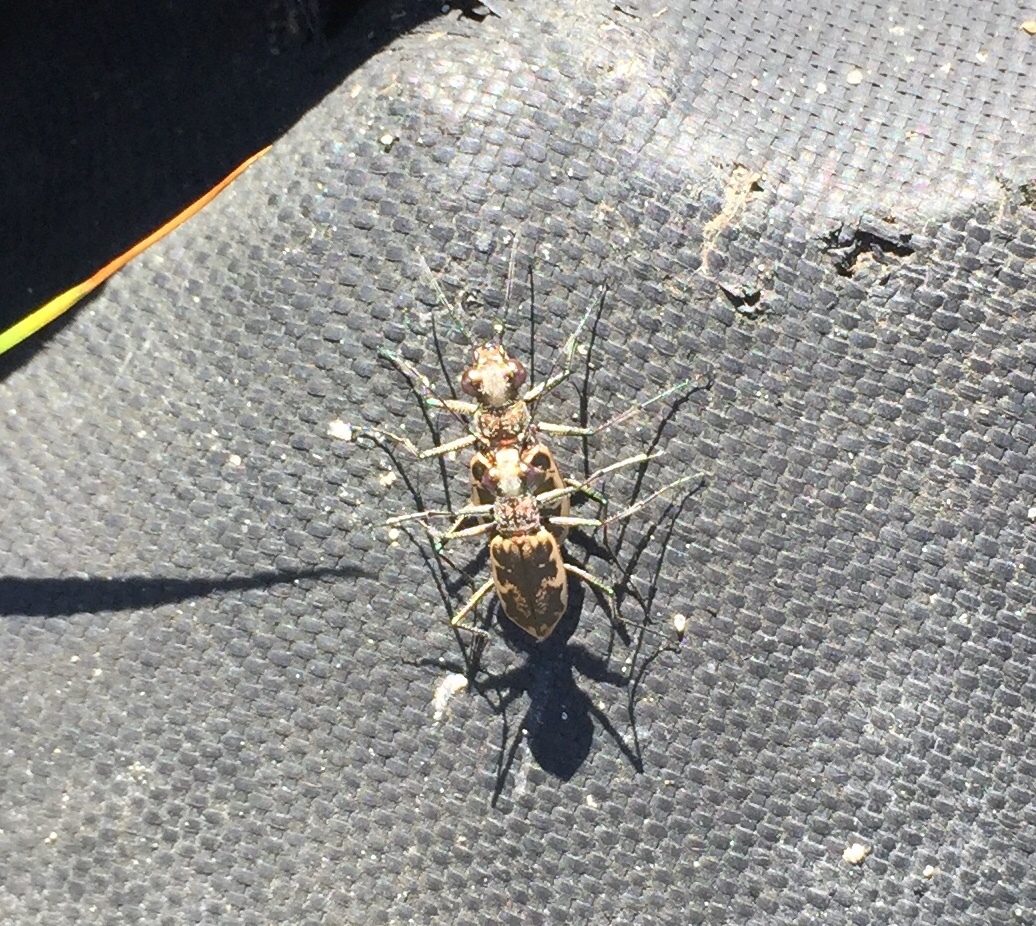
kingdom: Animalia
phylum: Arthropoda
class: Insecta
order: Coleoptera
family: Carabidae
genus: Ellipsoptera
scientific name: Ellipsoptera marginata
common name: Margined tiger beetle
